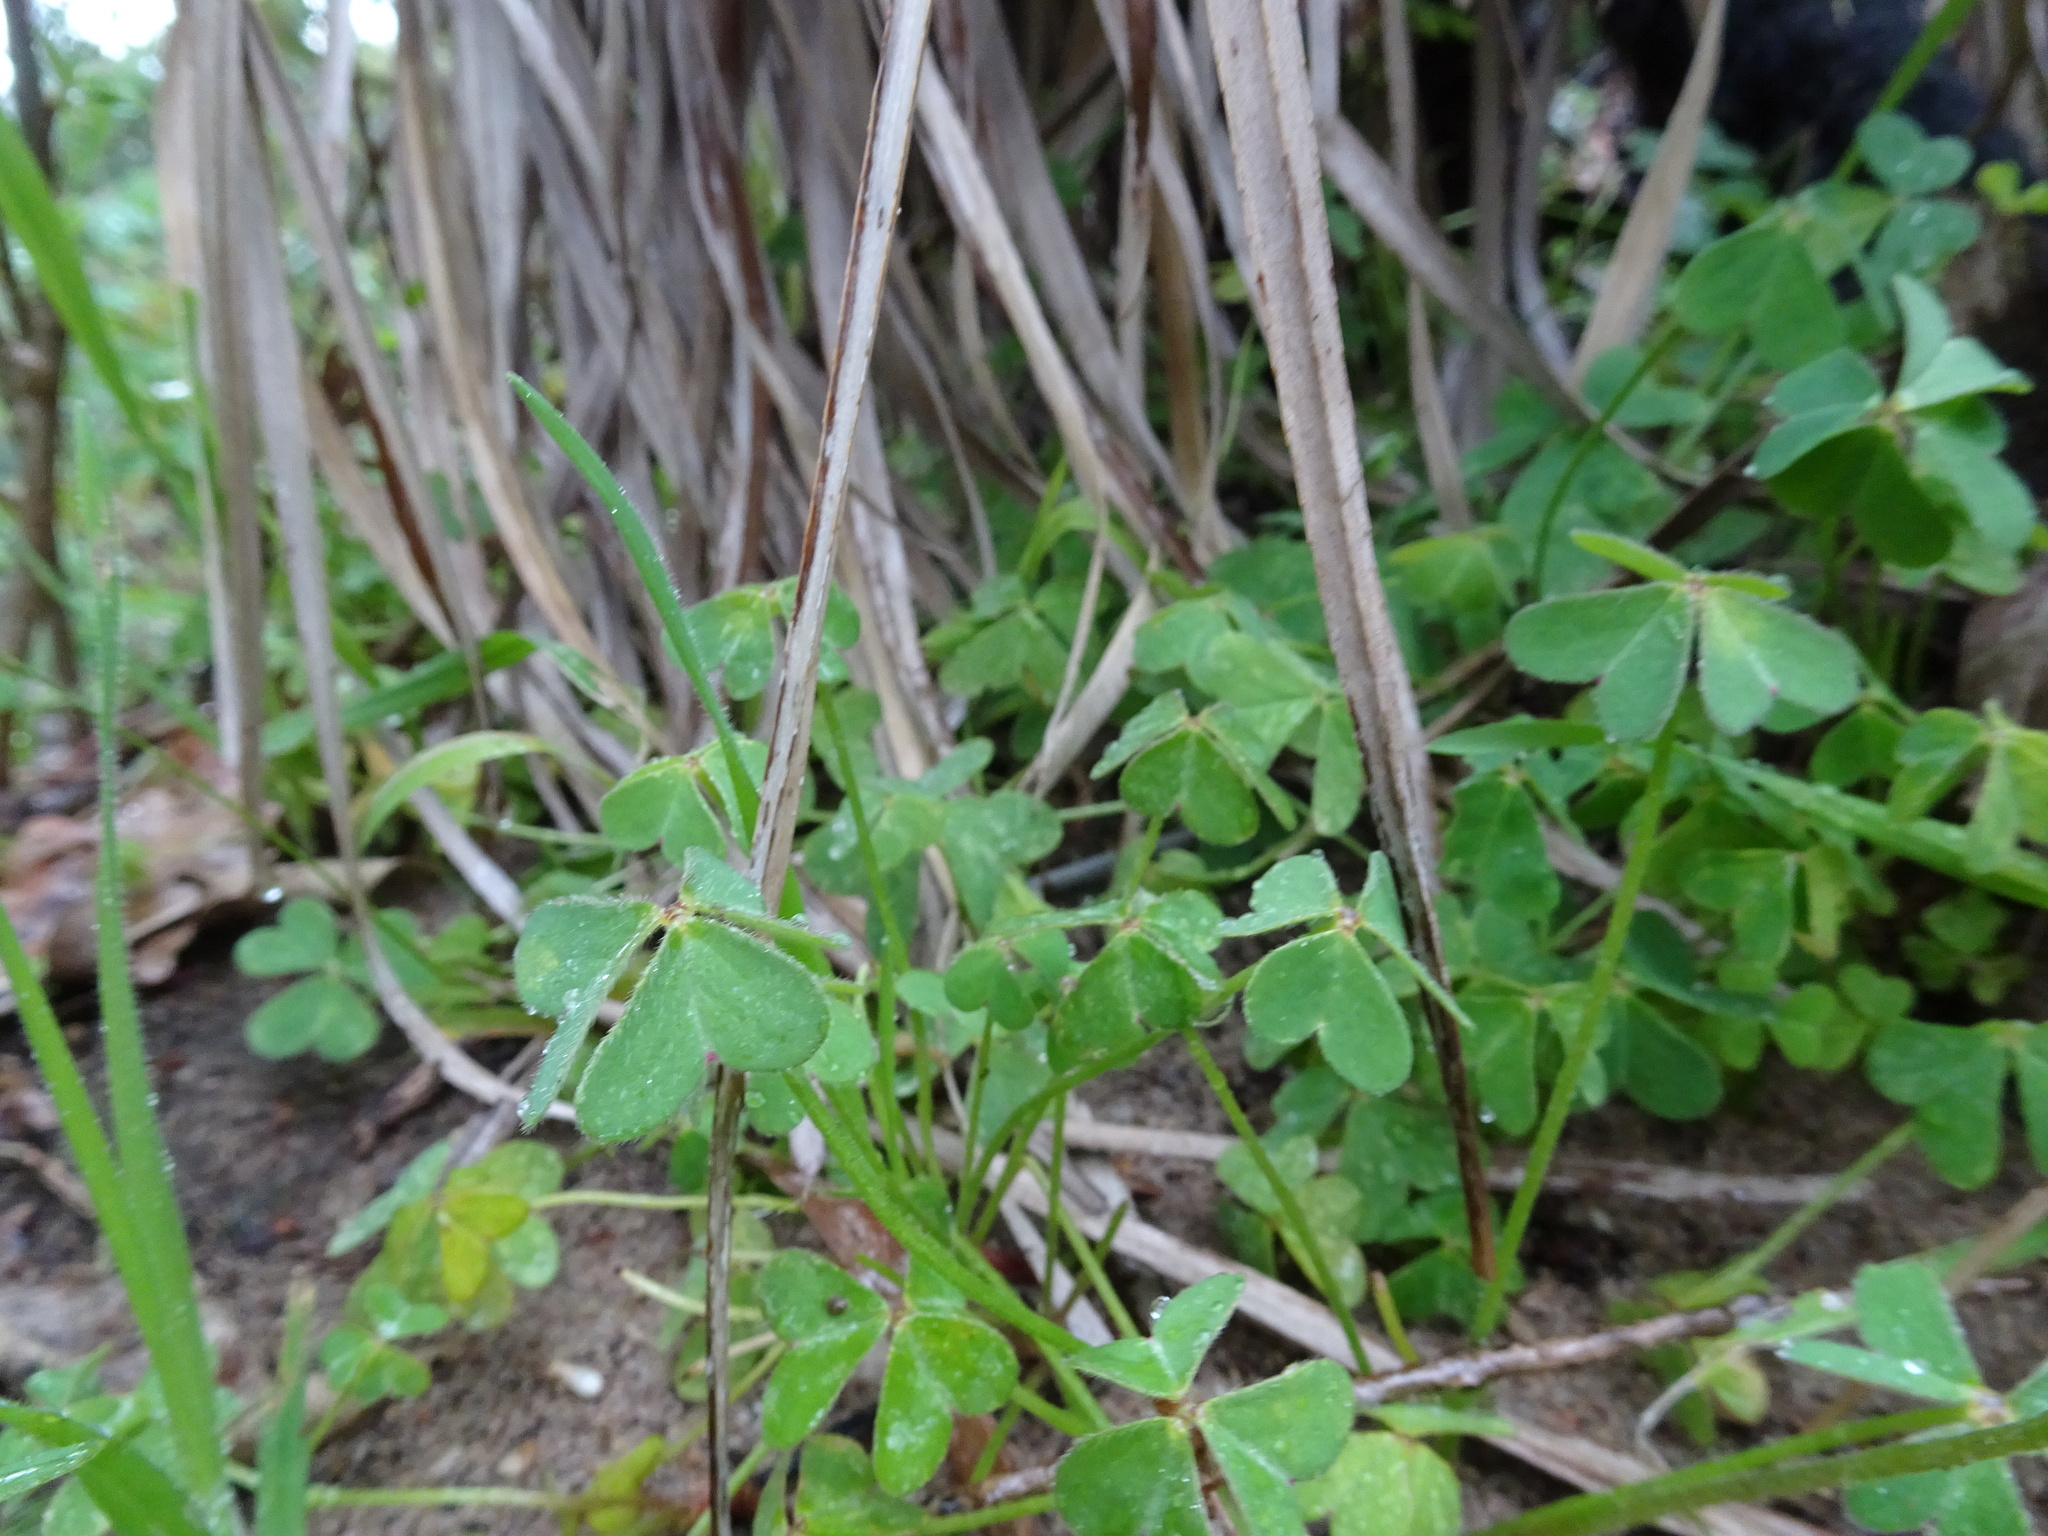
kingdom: Plantae
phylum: Tracheophyta
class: Magnoliopsida
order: Oxalidales
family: Oxalidaceae
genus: Oxalis
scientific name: Oxalis pes-caprae
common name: Bermuda-buttercup
